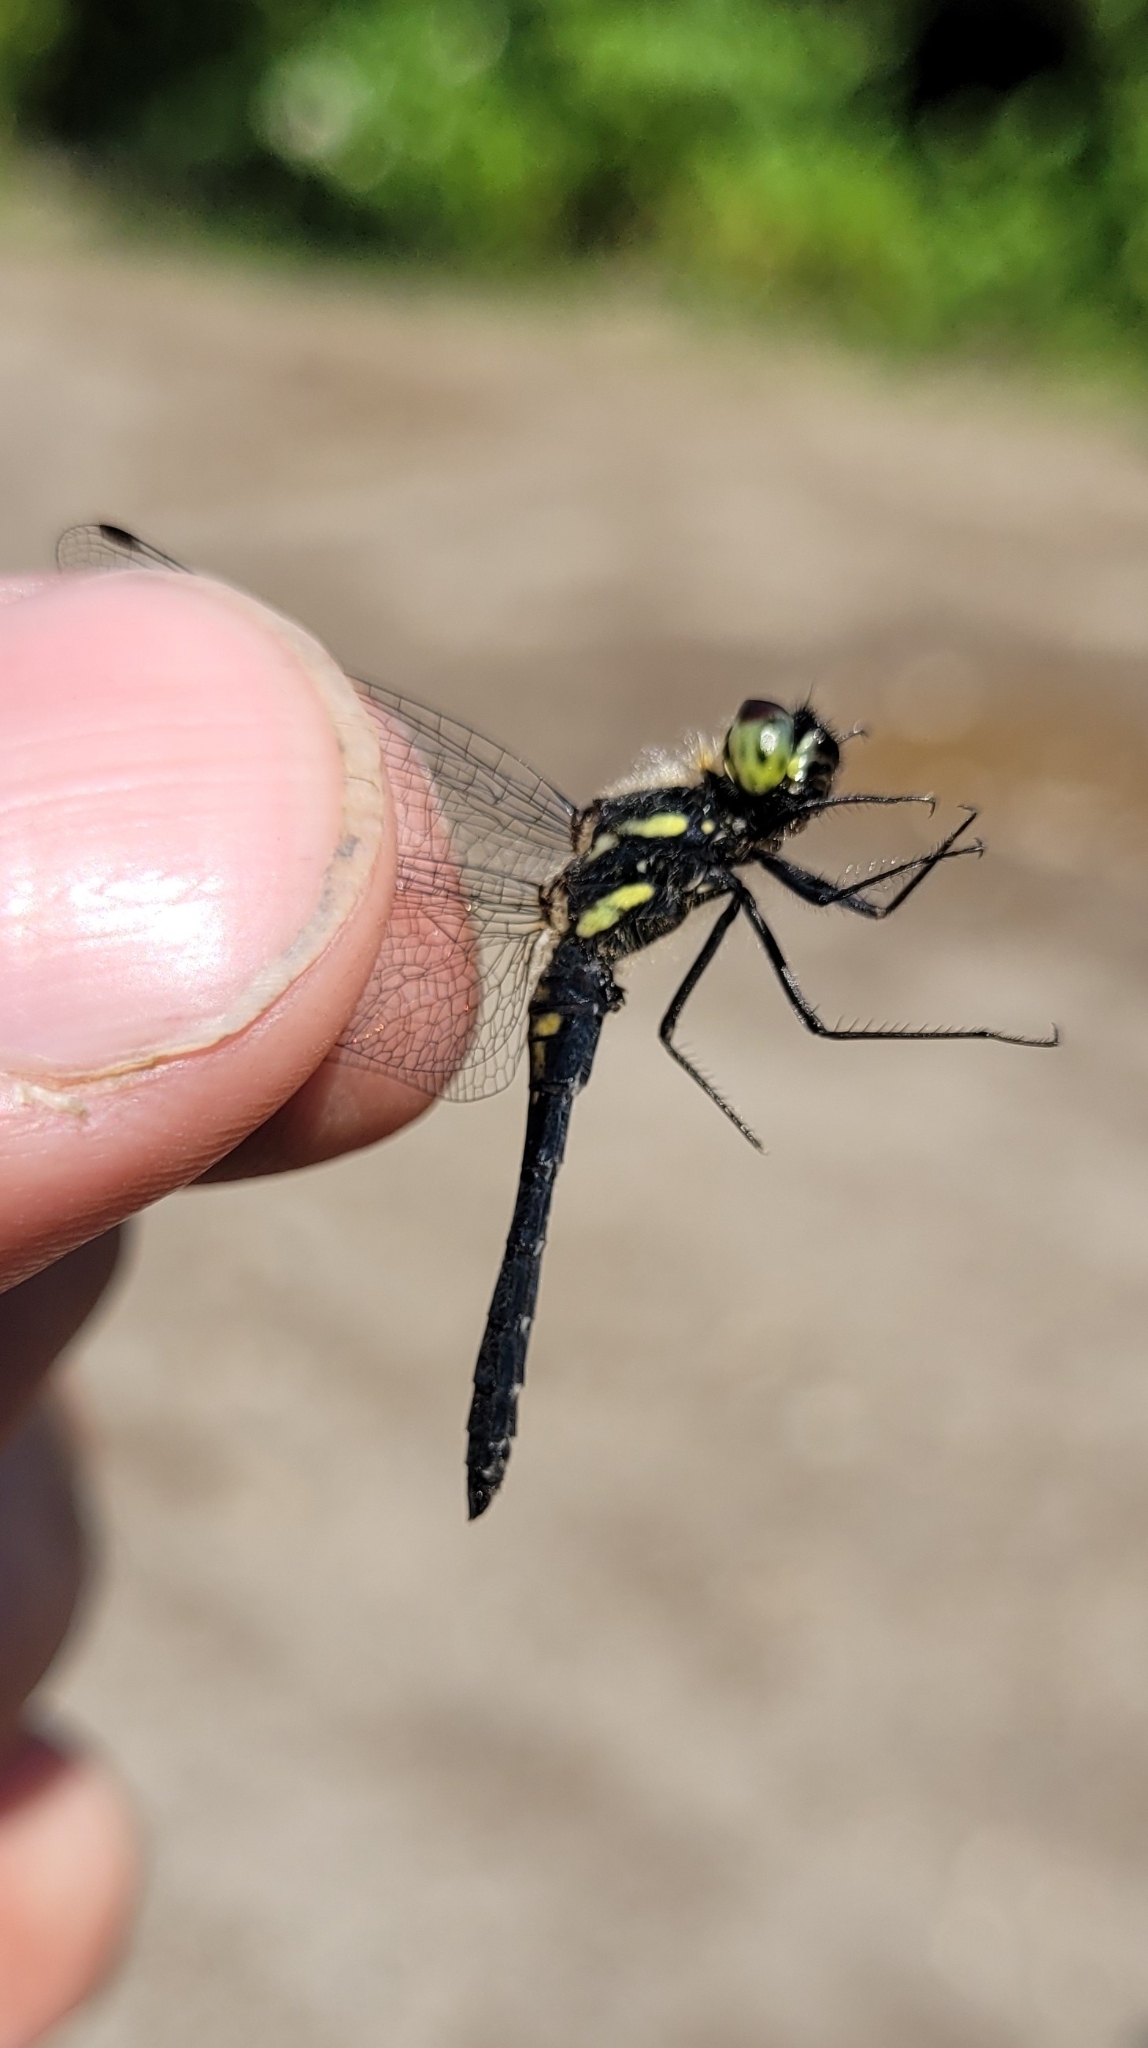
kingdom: Animalia
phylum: Arthropoda
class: Insecta
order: Odonata
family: Libellulidae
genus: Sympetrum
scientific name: Sympetrum danae
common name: Black darter
